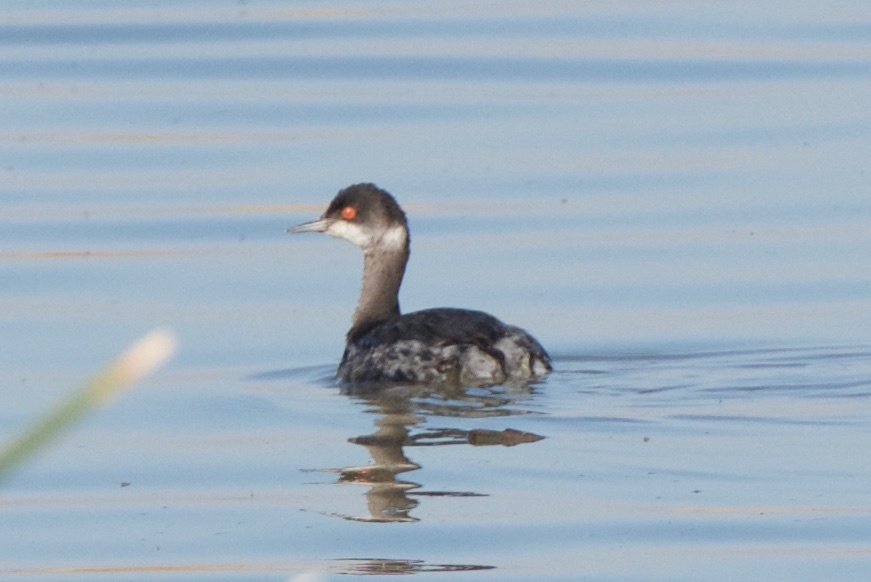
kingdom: Animalia
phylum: Chordata
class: Aves
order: Podicipediformes
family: Podicipedidae
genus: Podiceps
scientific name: Podiceps nigricollis
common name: Black-necked grebe
